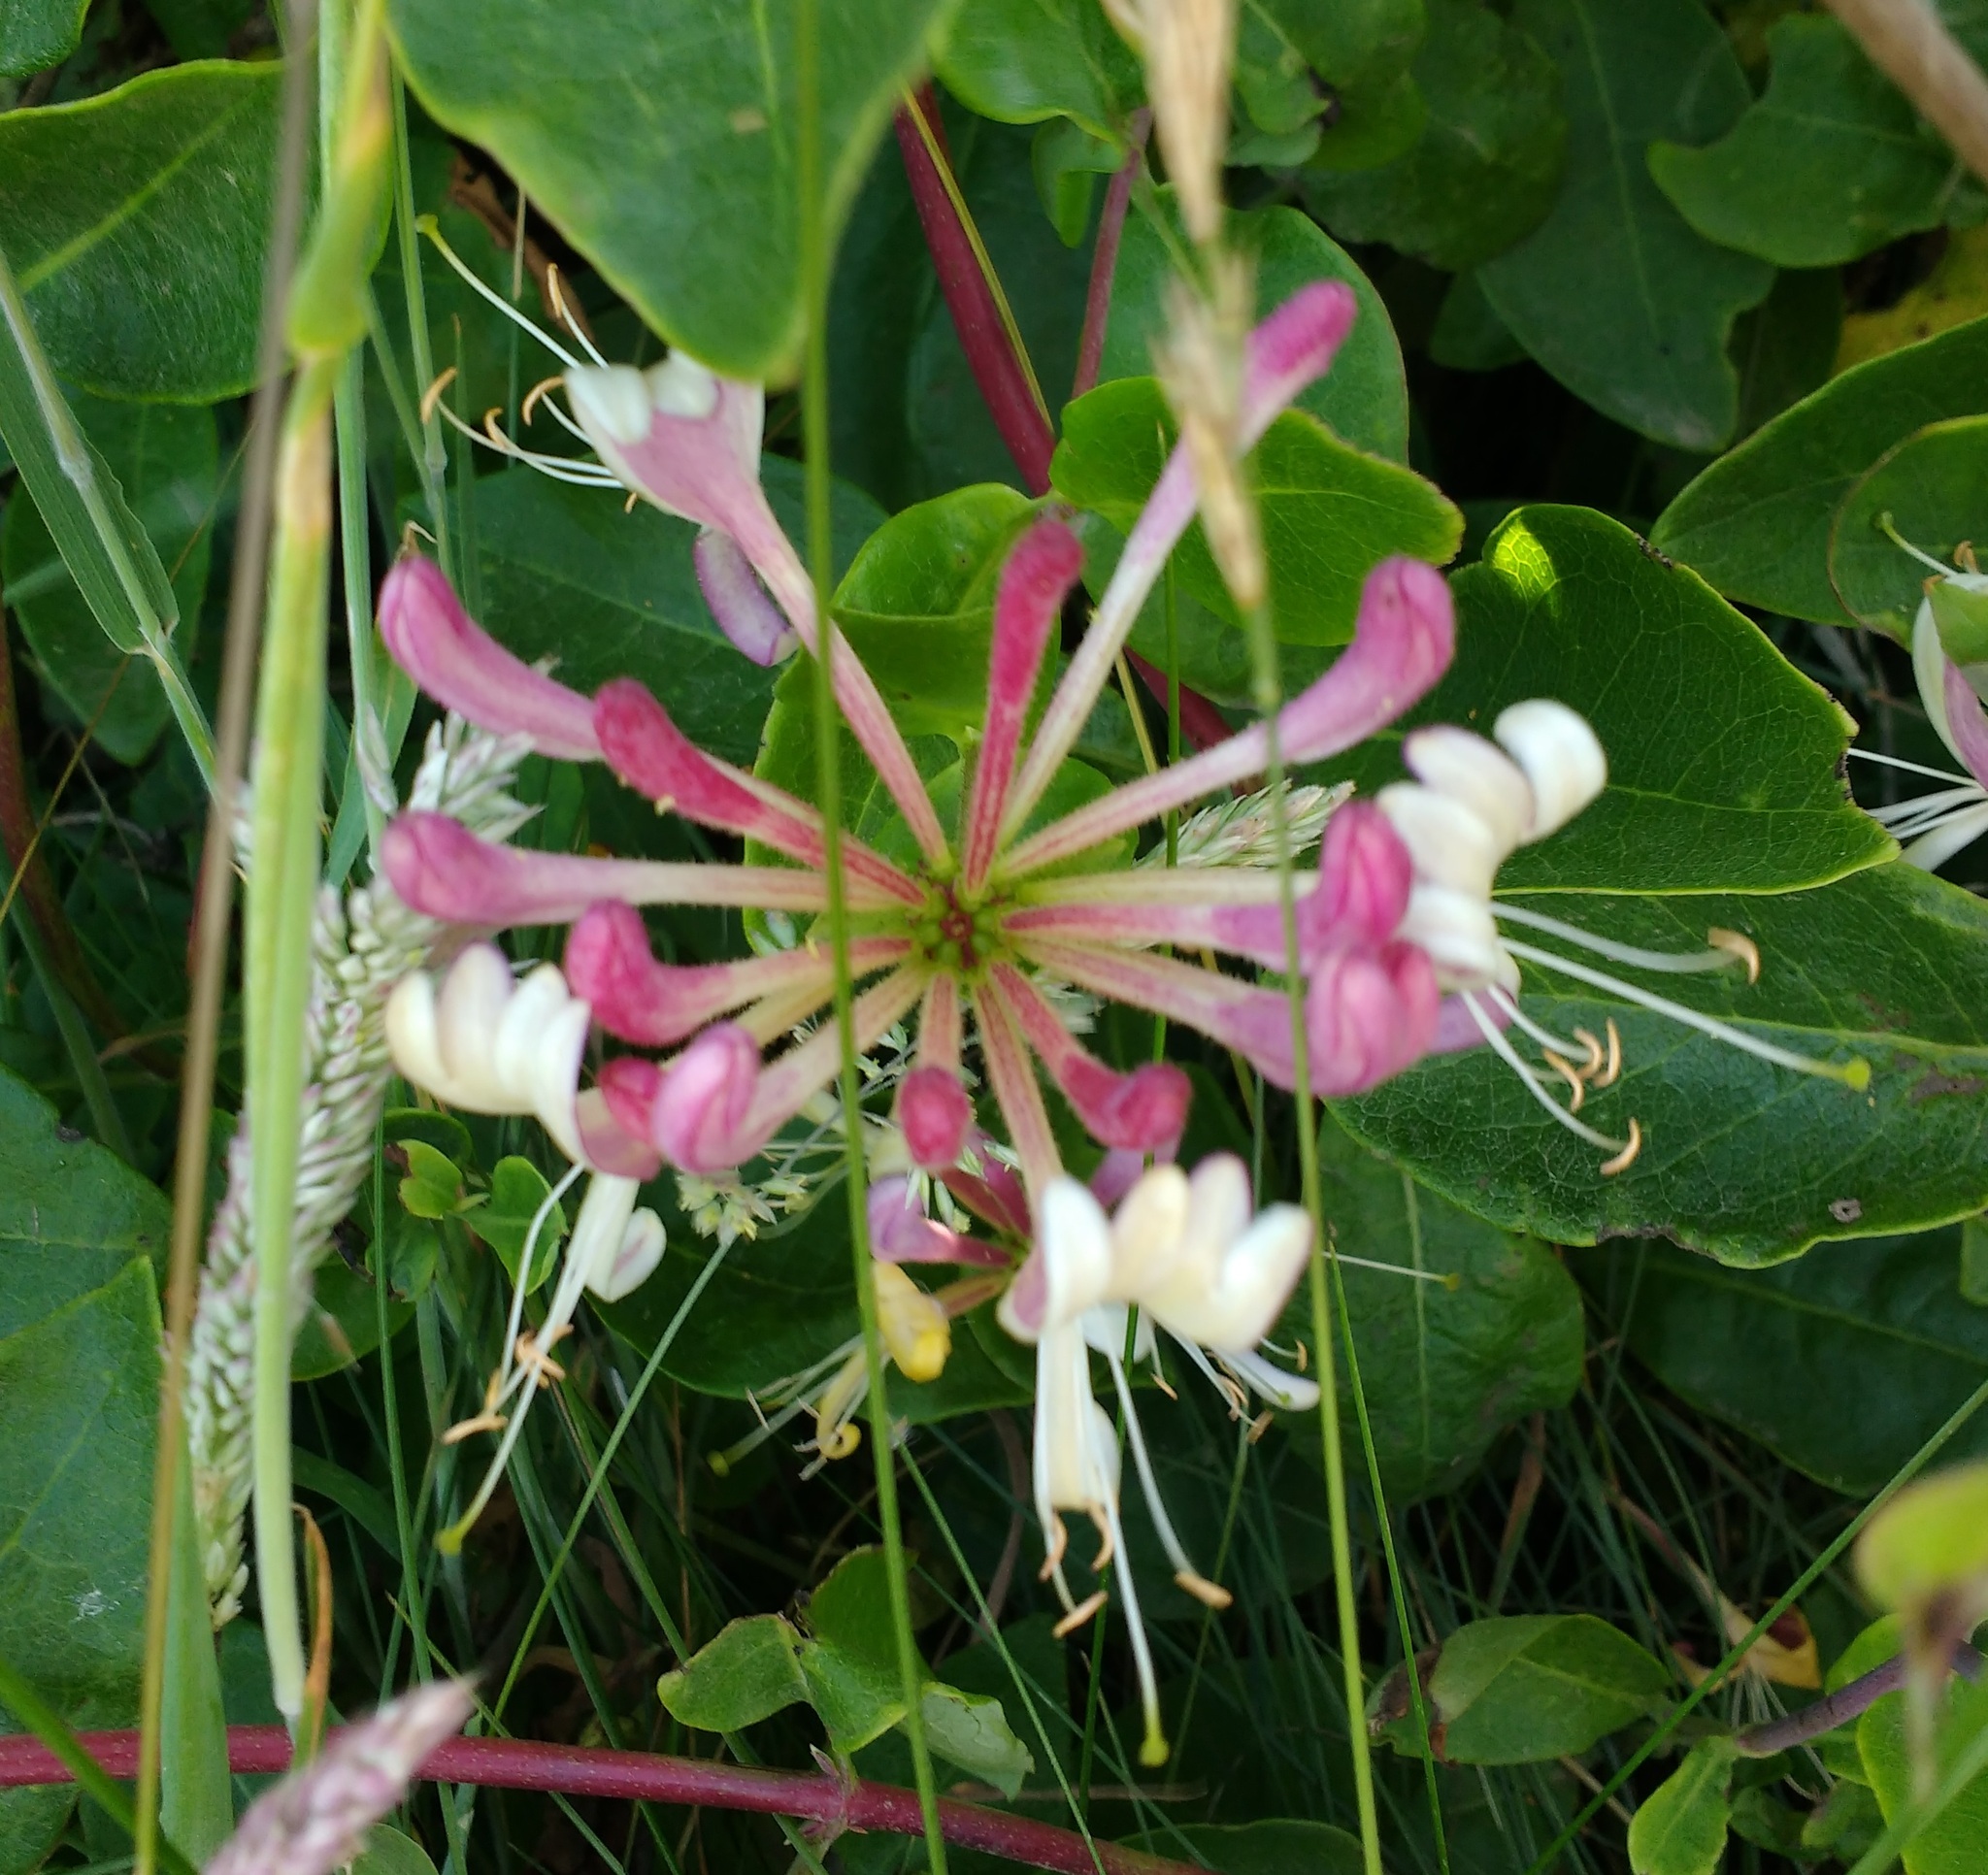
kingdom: Plantae
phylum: Tracheophyta
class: Magnoliopsida
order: Dipsacales
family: Caprifoliaceae
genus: Lonicera
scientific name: Lonicera periclymenum
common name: European honeysuckle
